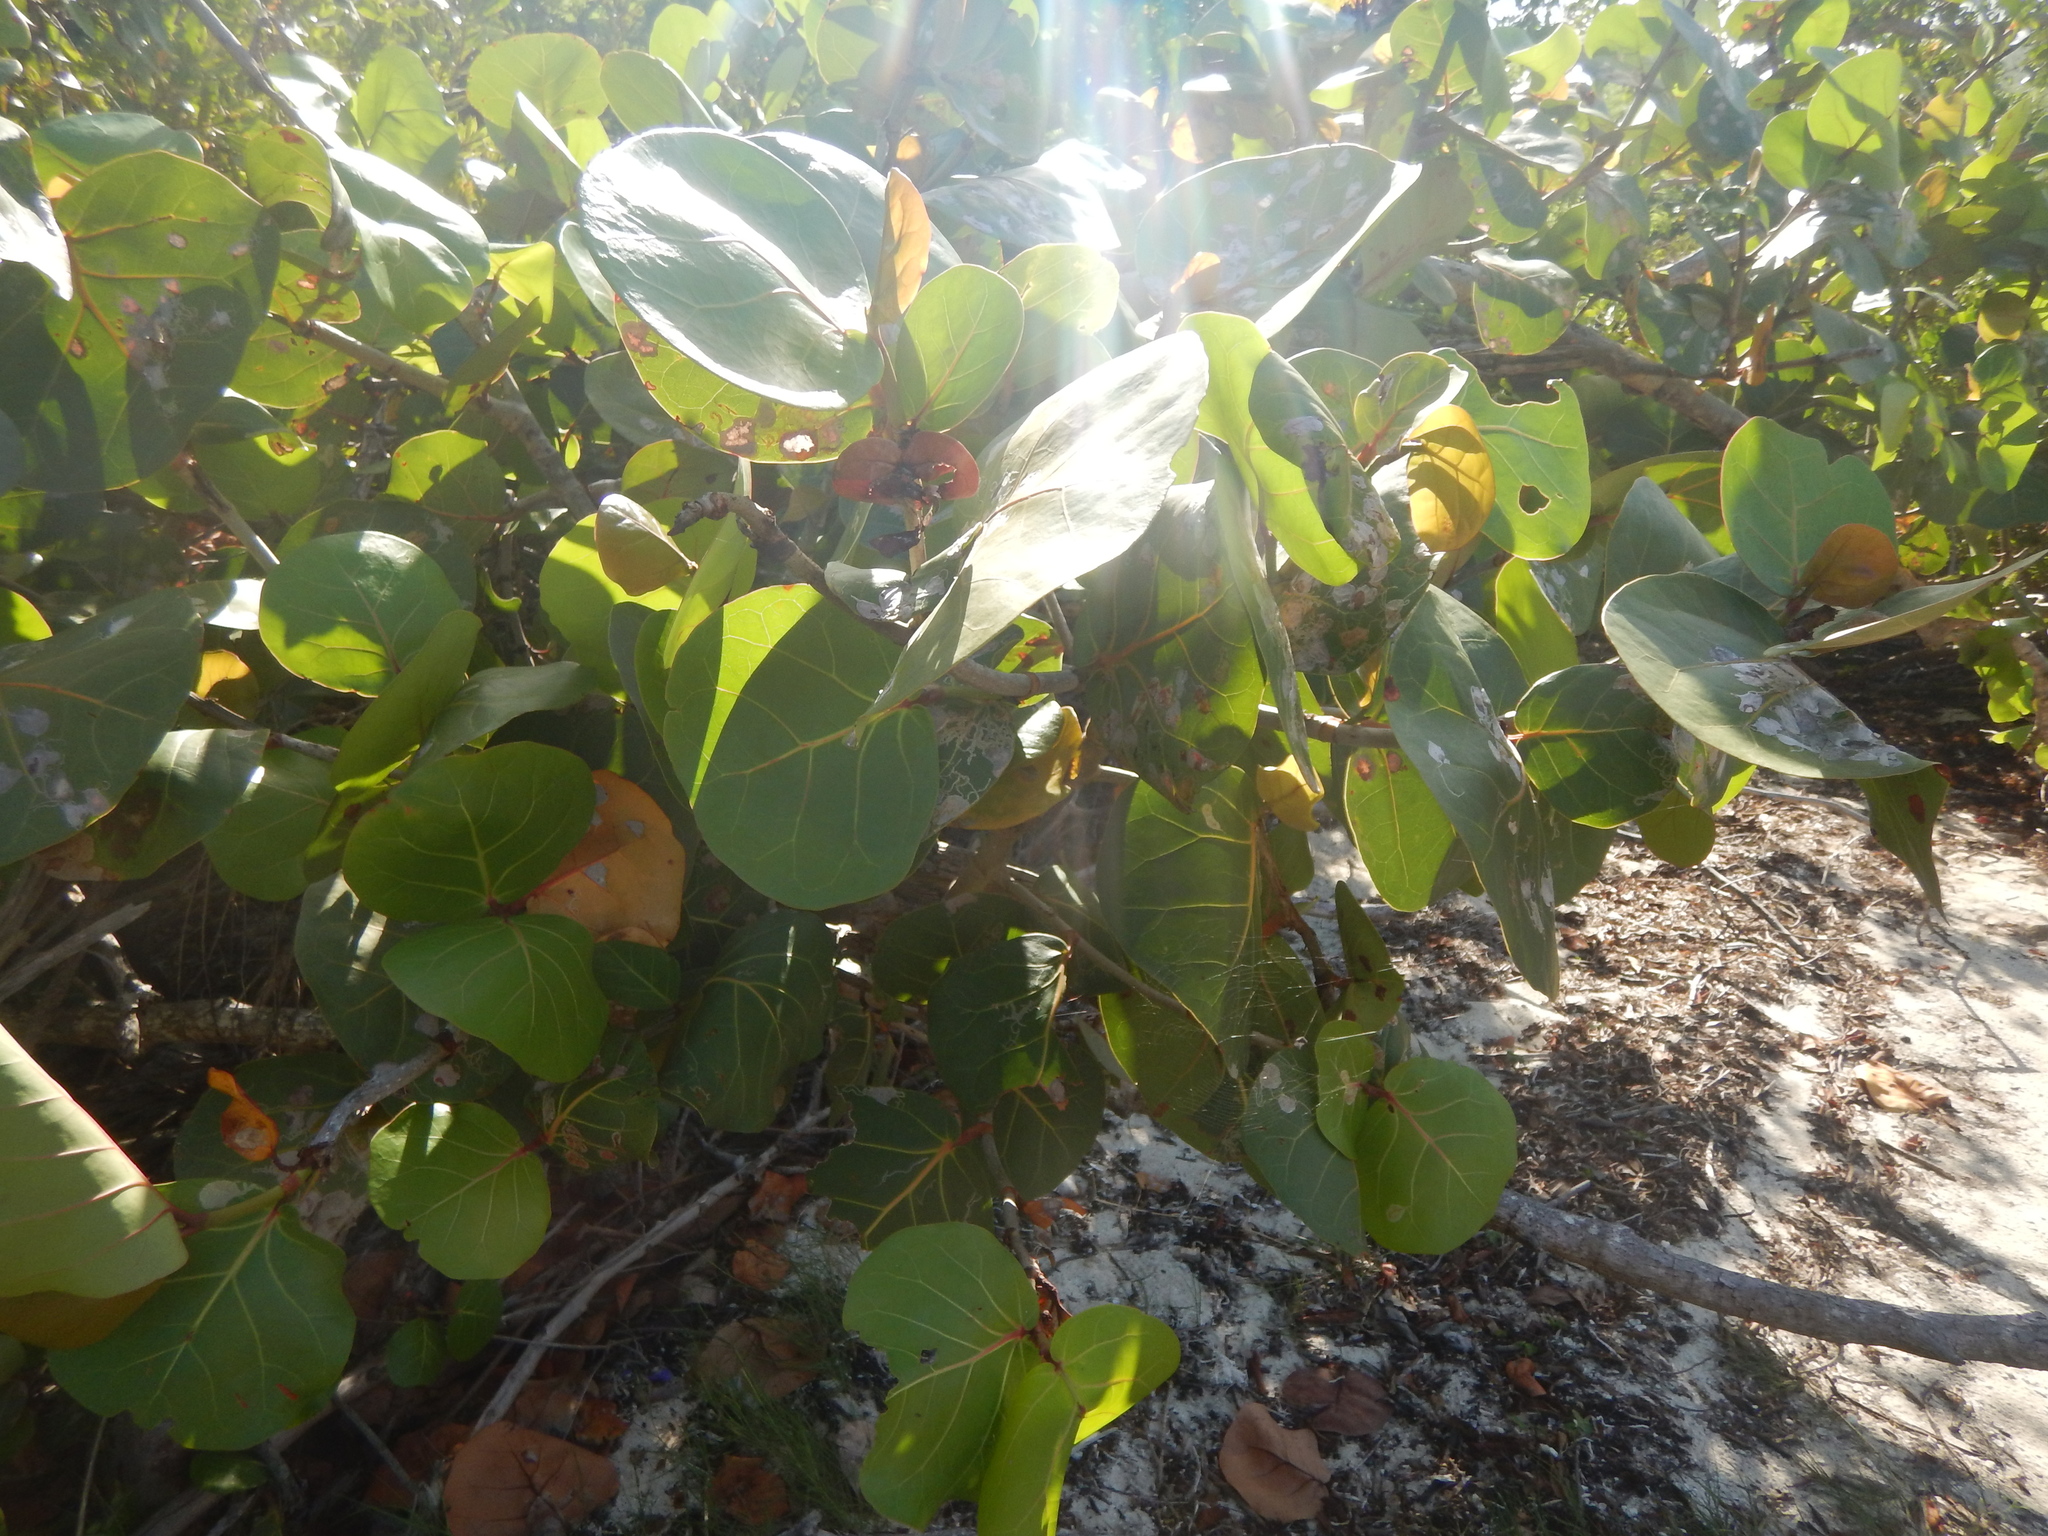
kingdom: Plantae
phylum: Tracheophyta
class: Magnoliopsida
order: Caryophyllales
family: Polygonaceae
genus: Coccoloba
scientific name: Coccoloba uvifera
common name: Seagrape
